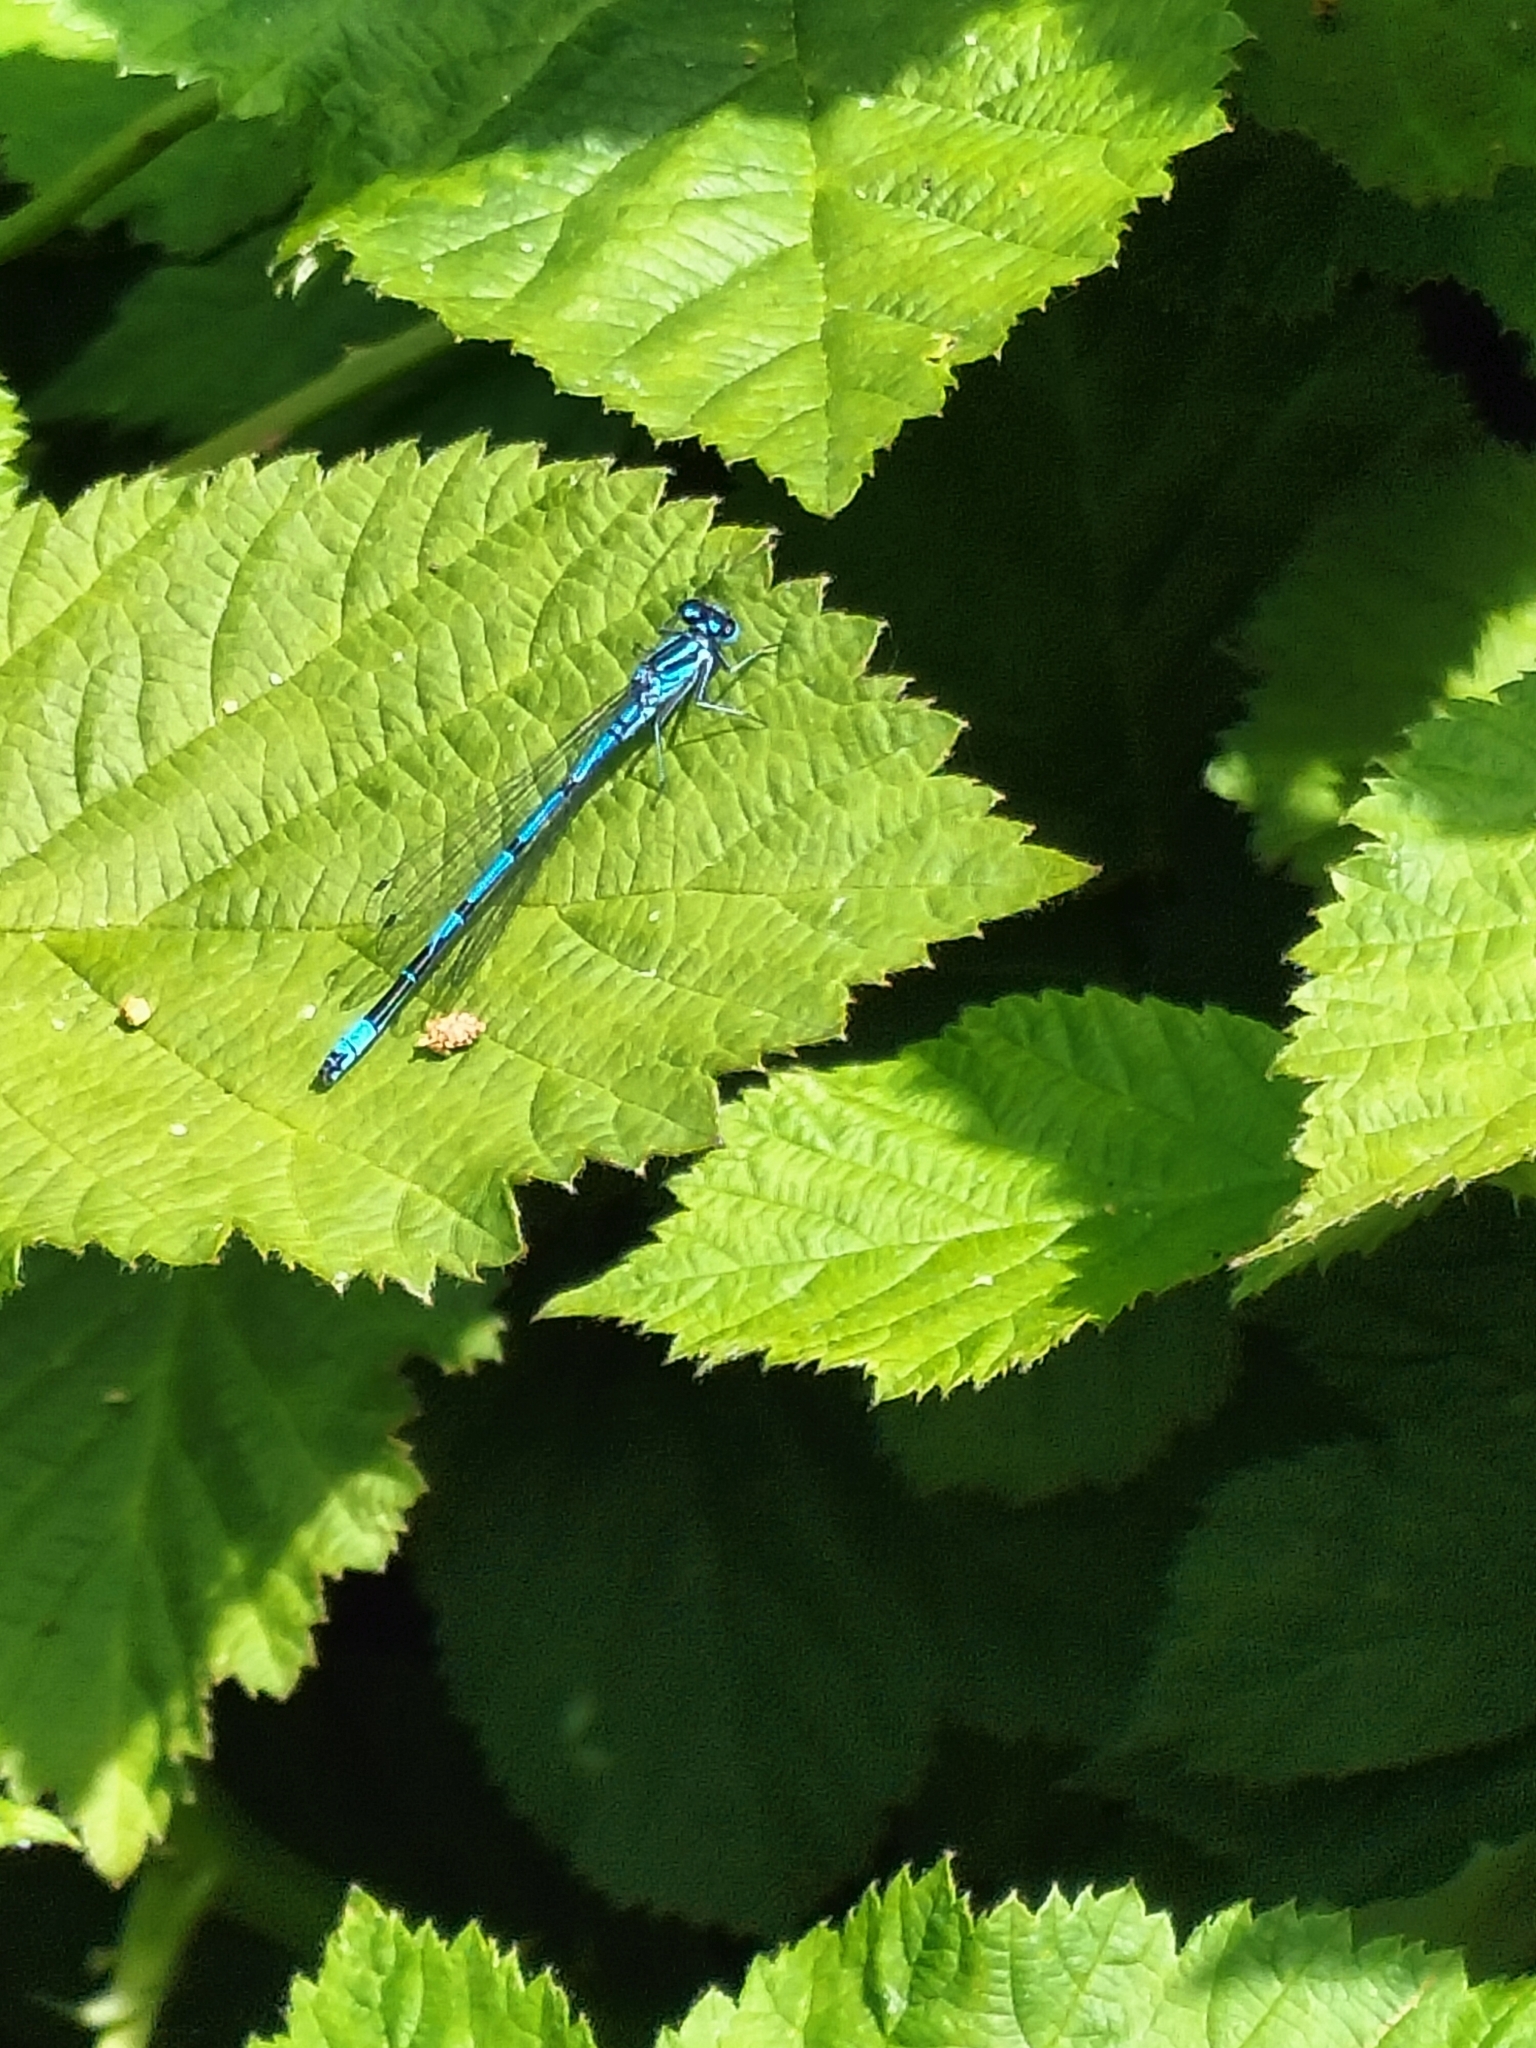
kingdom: Animalia
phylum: Arthropoda
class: Insecta
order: Odonata
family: Coenagrionidae
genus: Coenagrion
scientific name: Coenagrion puella
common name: Azure damselfly
